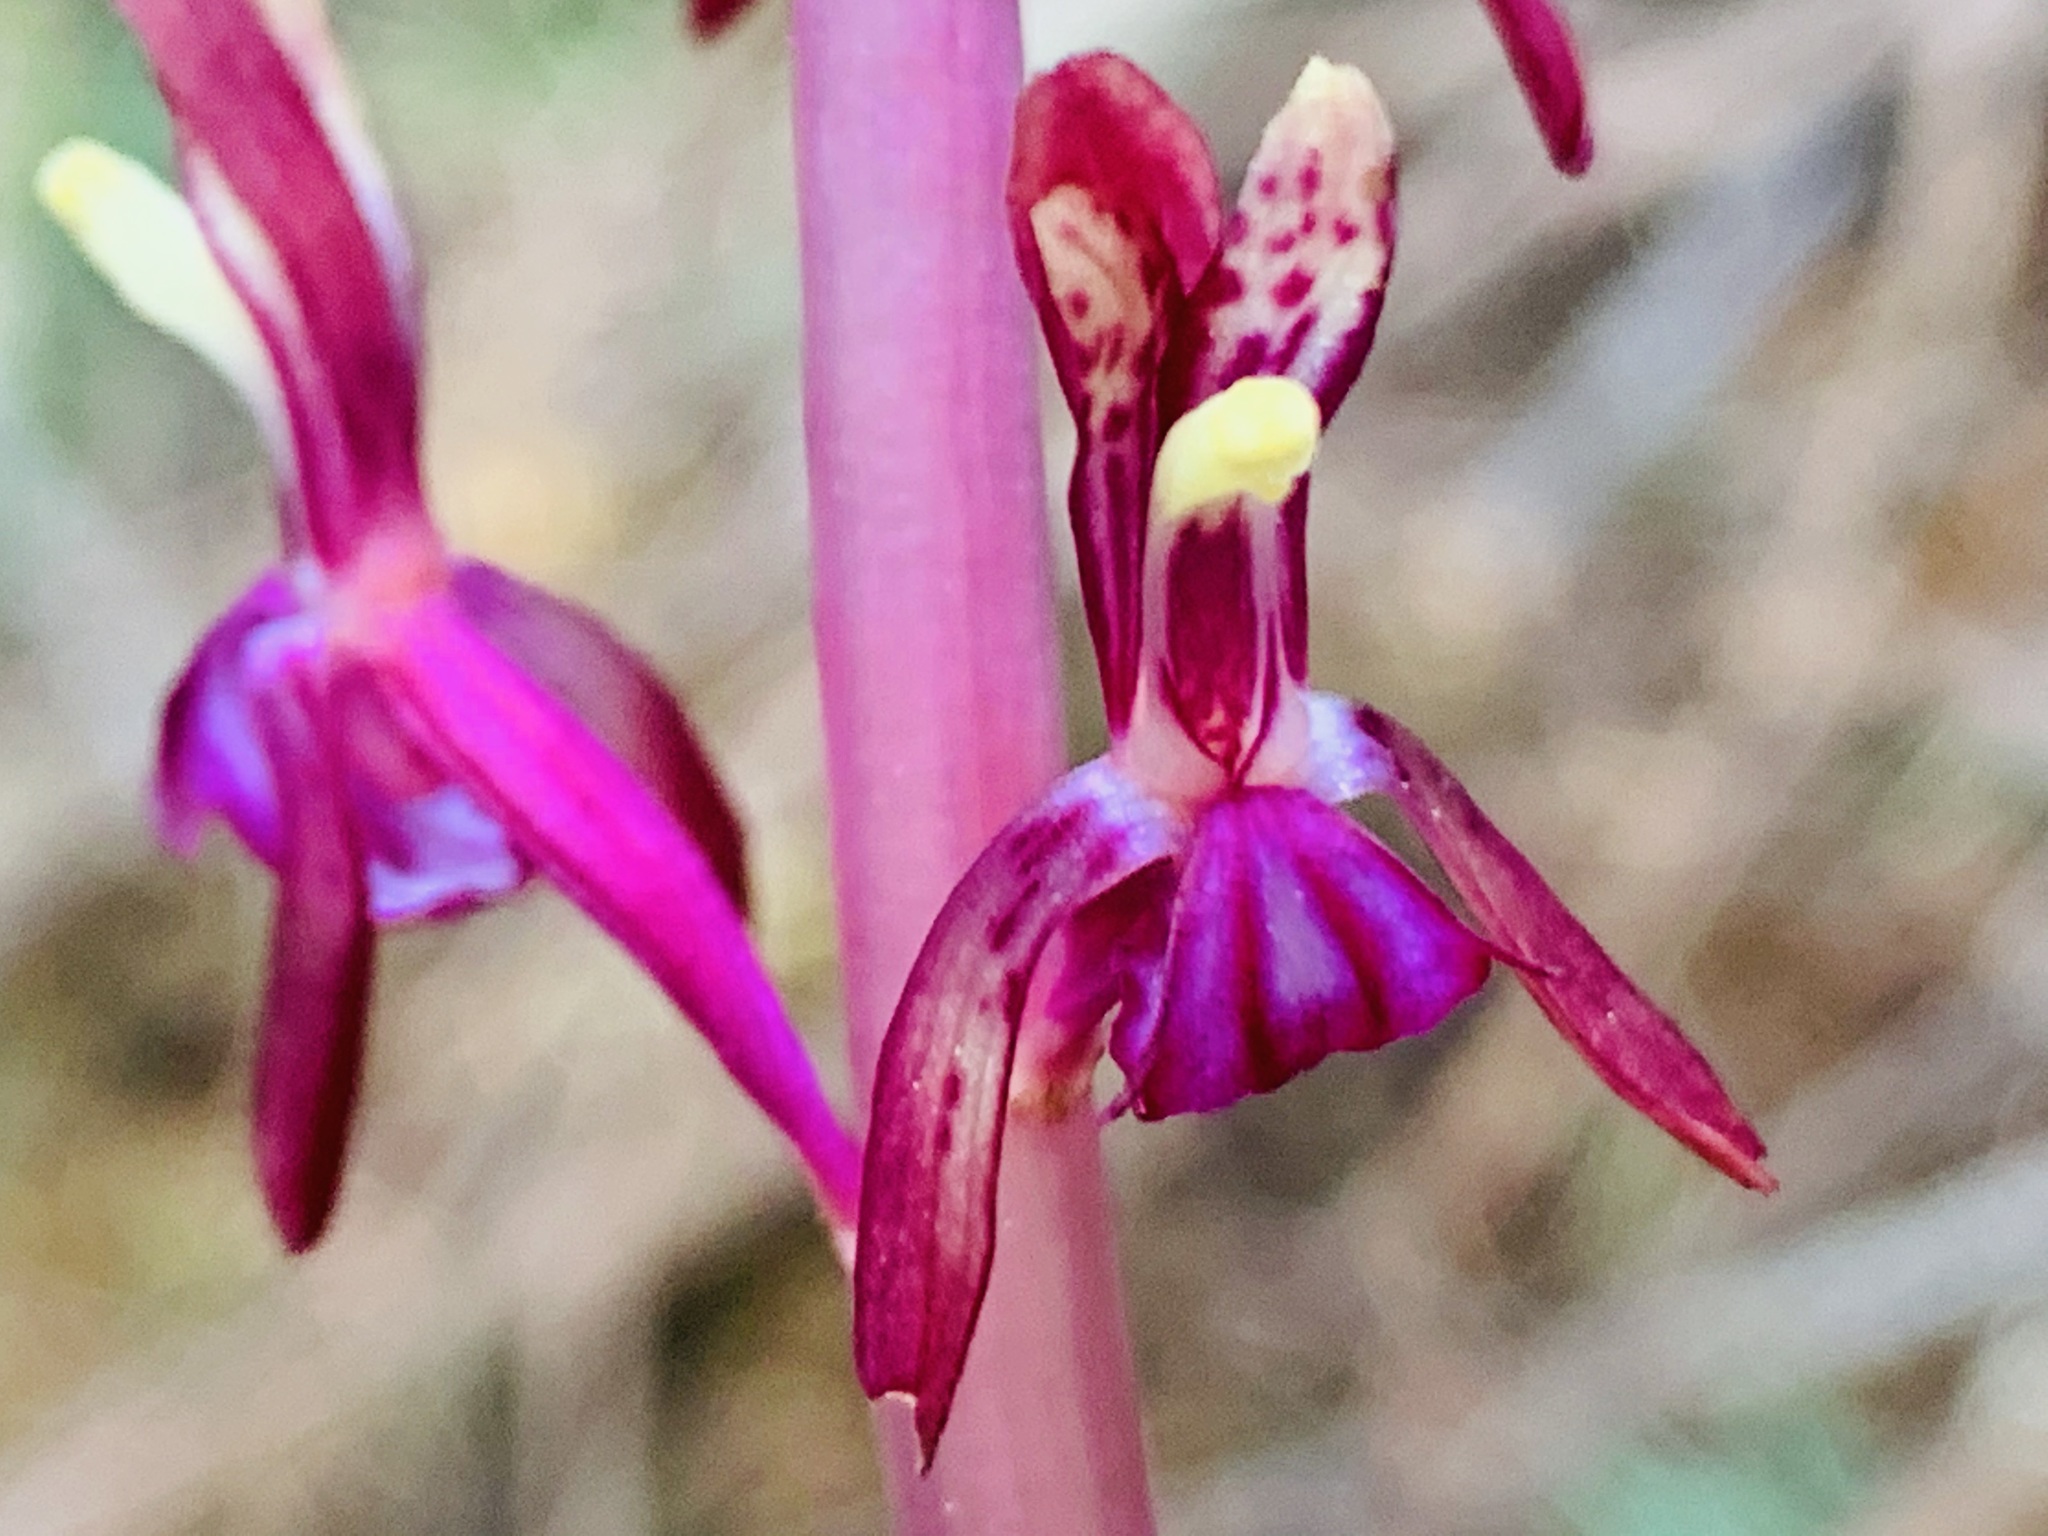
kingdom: Plantae
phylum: Tracheophyta
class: Liliopsida
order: Asparagales
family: Orchidaceae
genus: Corallorhiza
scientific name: Corallorhiza mertensiana
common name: Pacific coralroot
